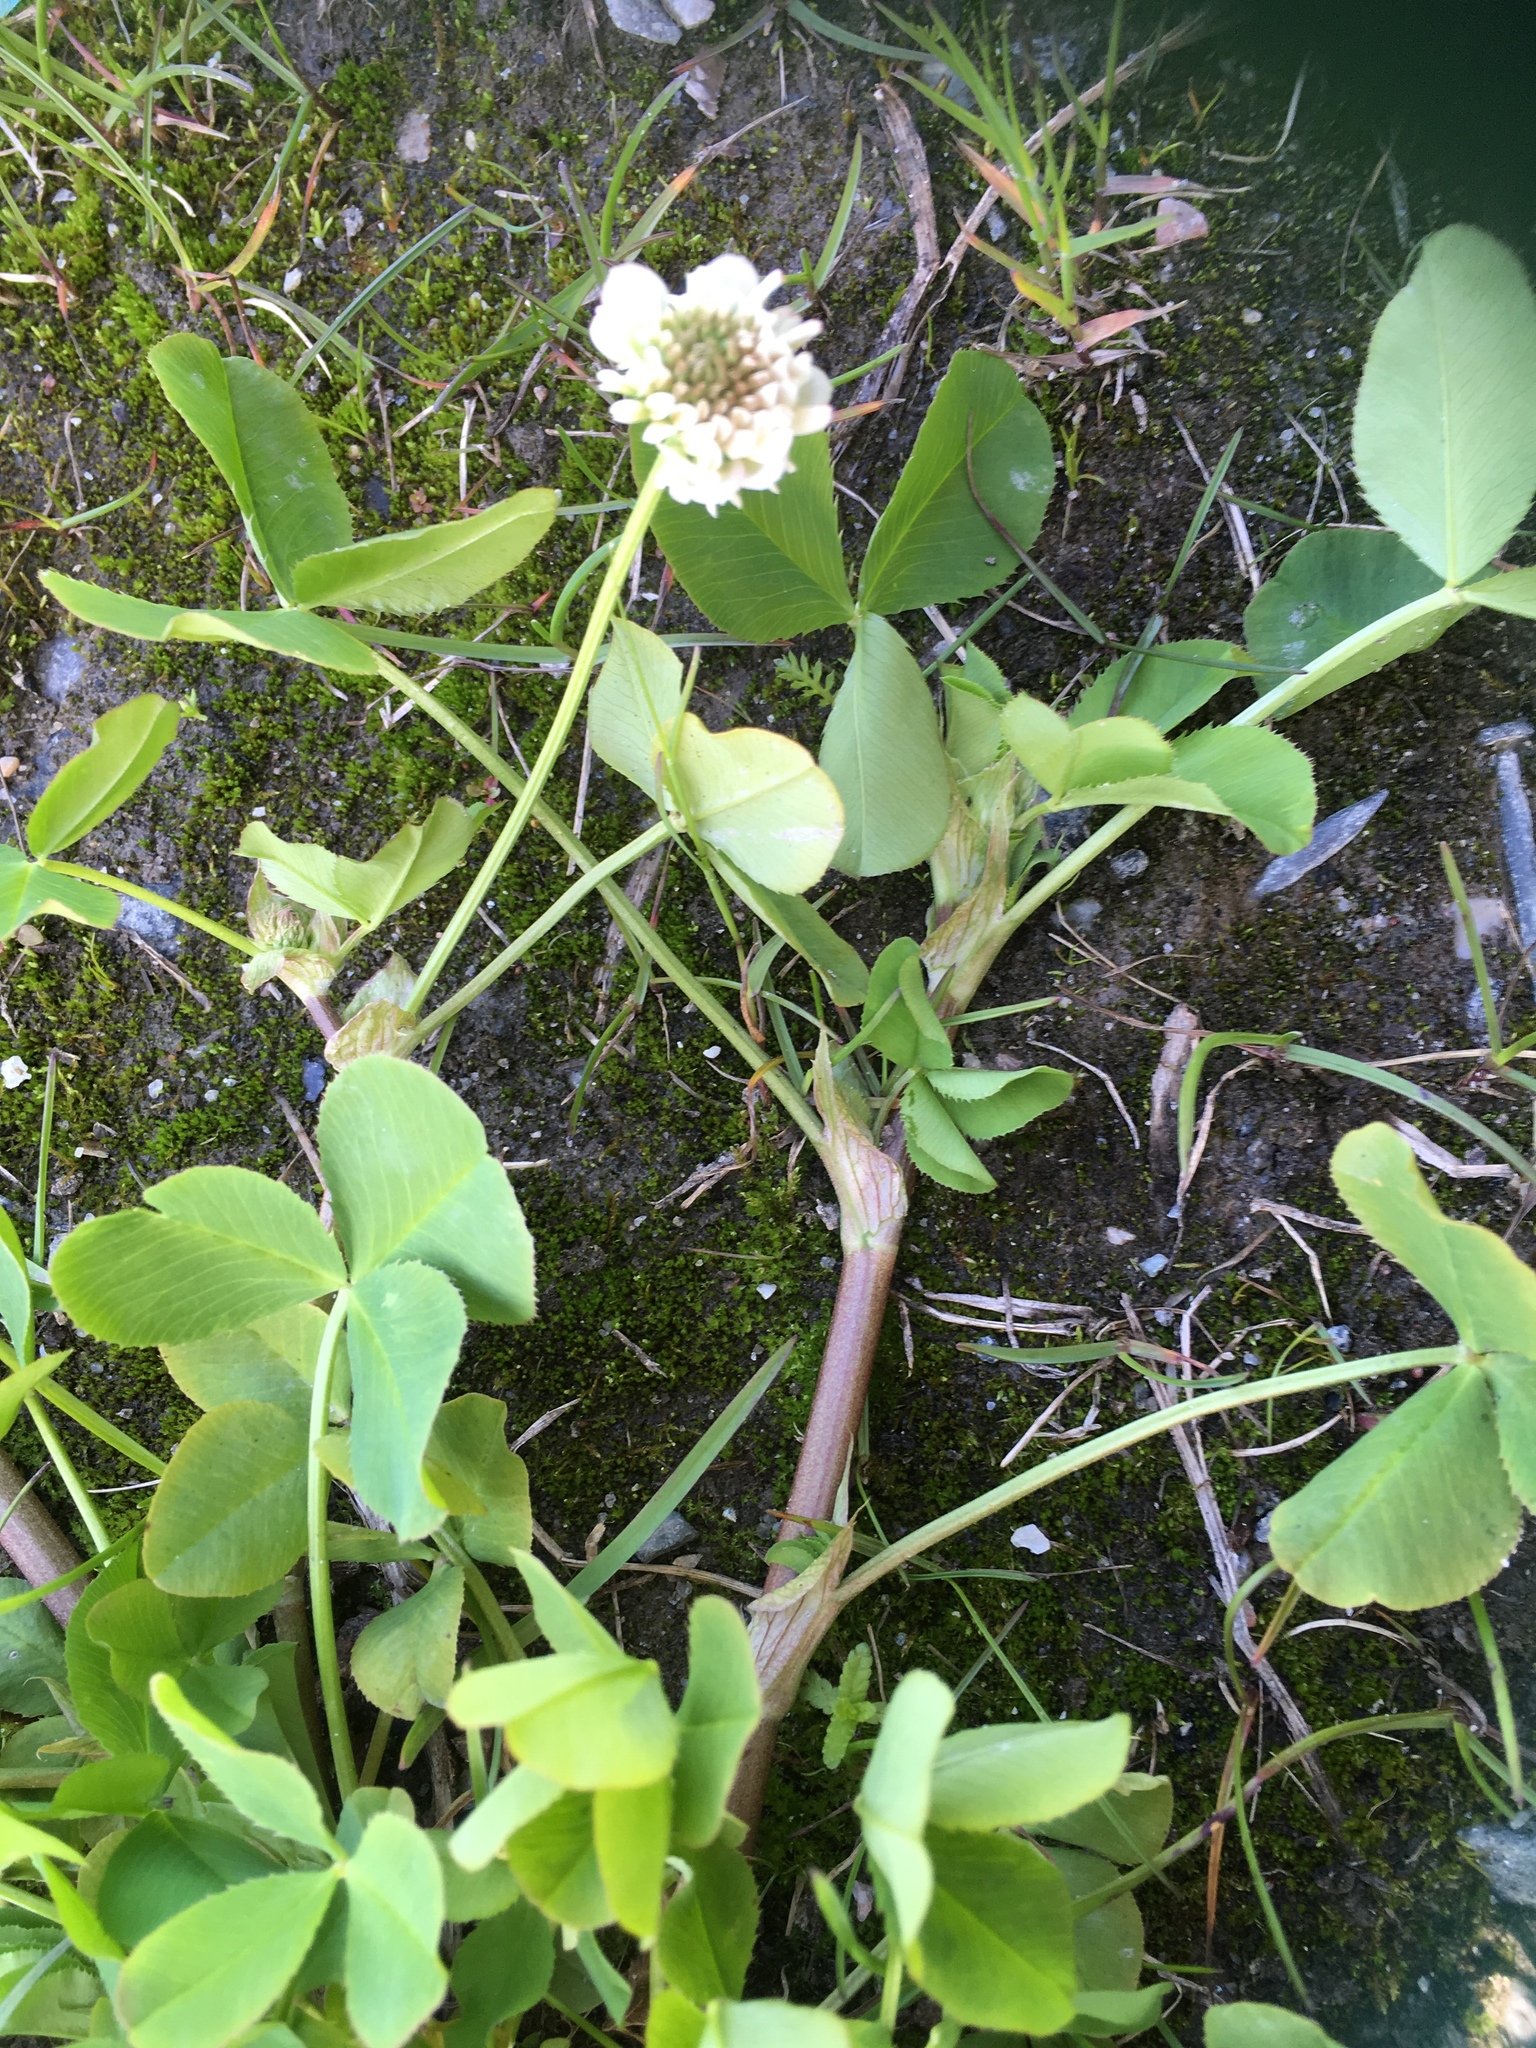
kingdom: Plantae
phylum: Tracheophyta
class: Magnoliopsida
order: Fabales
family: Fabaceae
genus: Trifolium
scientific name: Trifolium repens
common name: White clover
